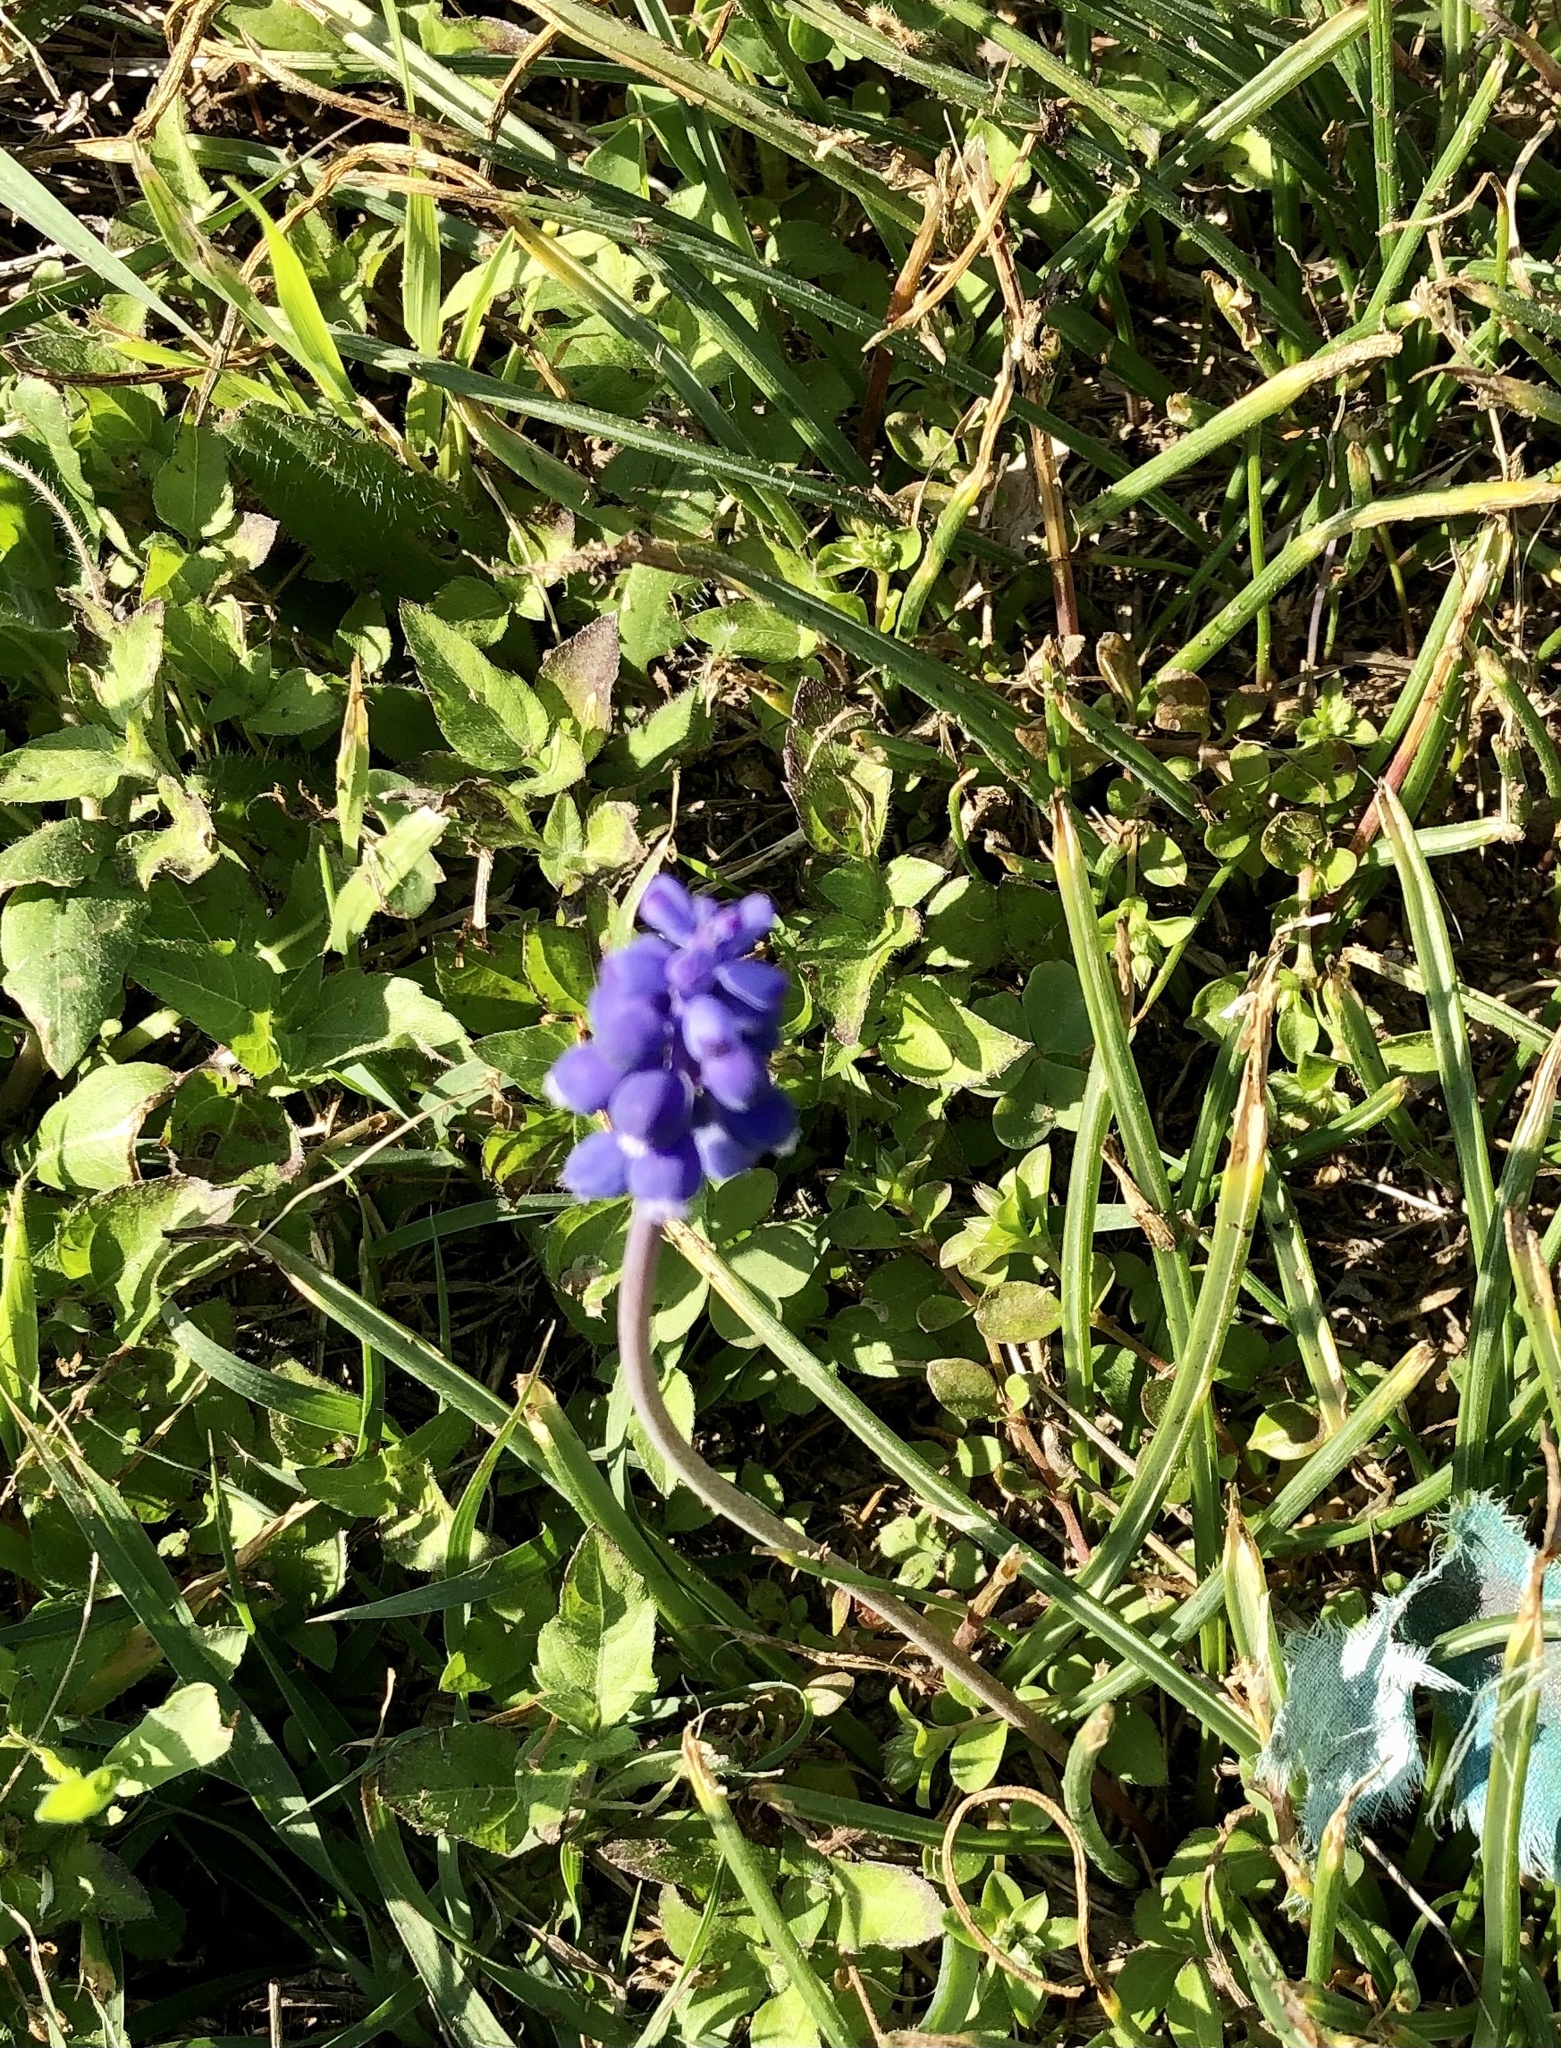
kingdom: Plantae
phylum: Tracheophyta
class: Liliopsida
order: Asparagales
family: Asparagaceae
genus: Muscari
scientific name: Muscari neglectum
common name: Grape-hyacinth
